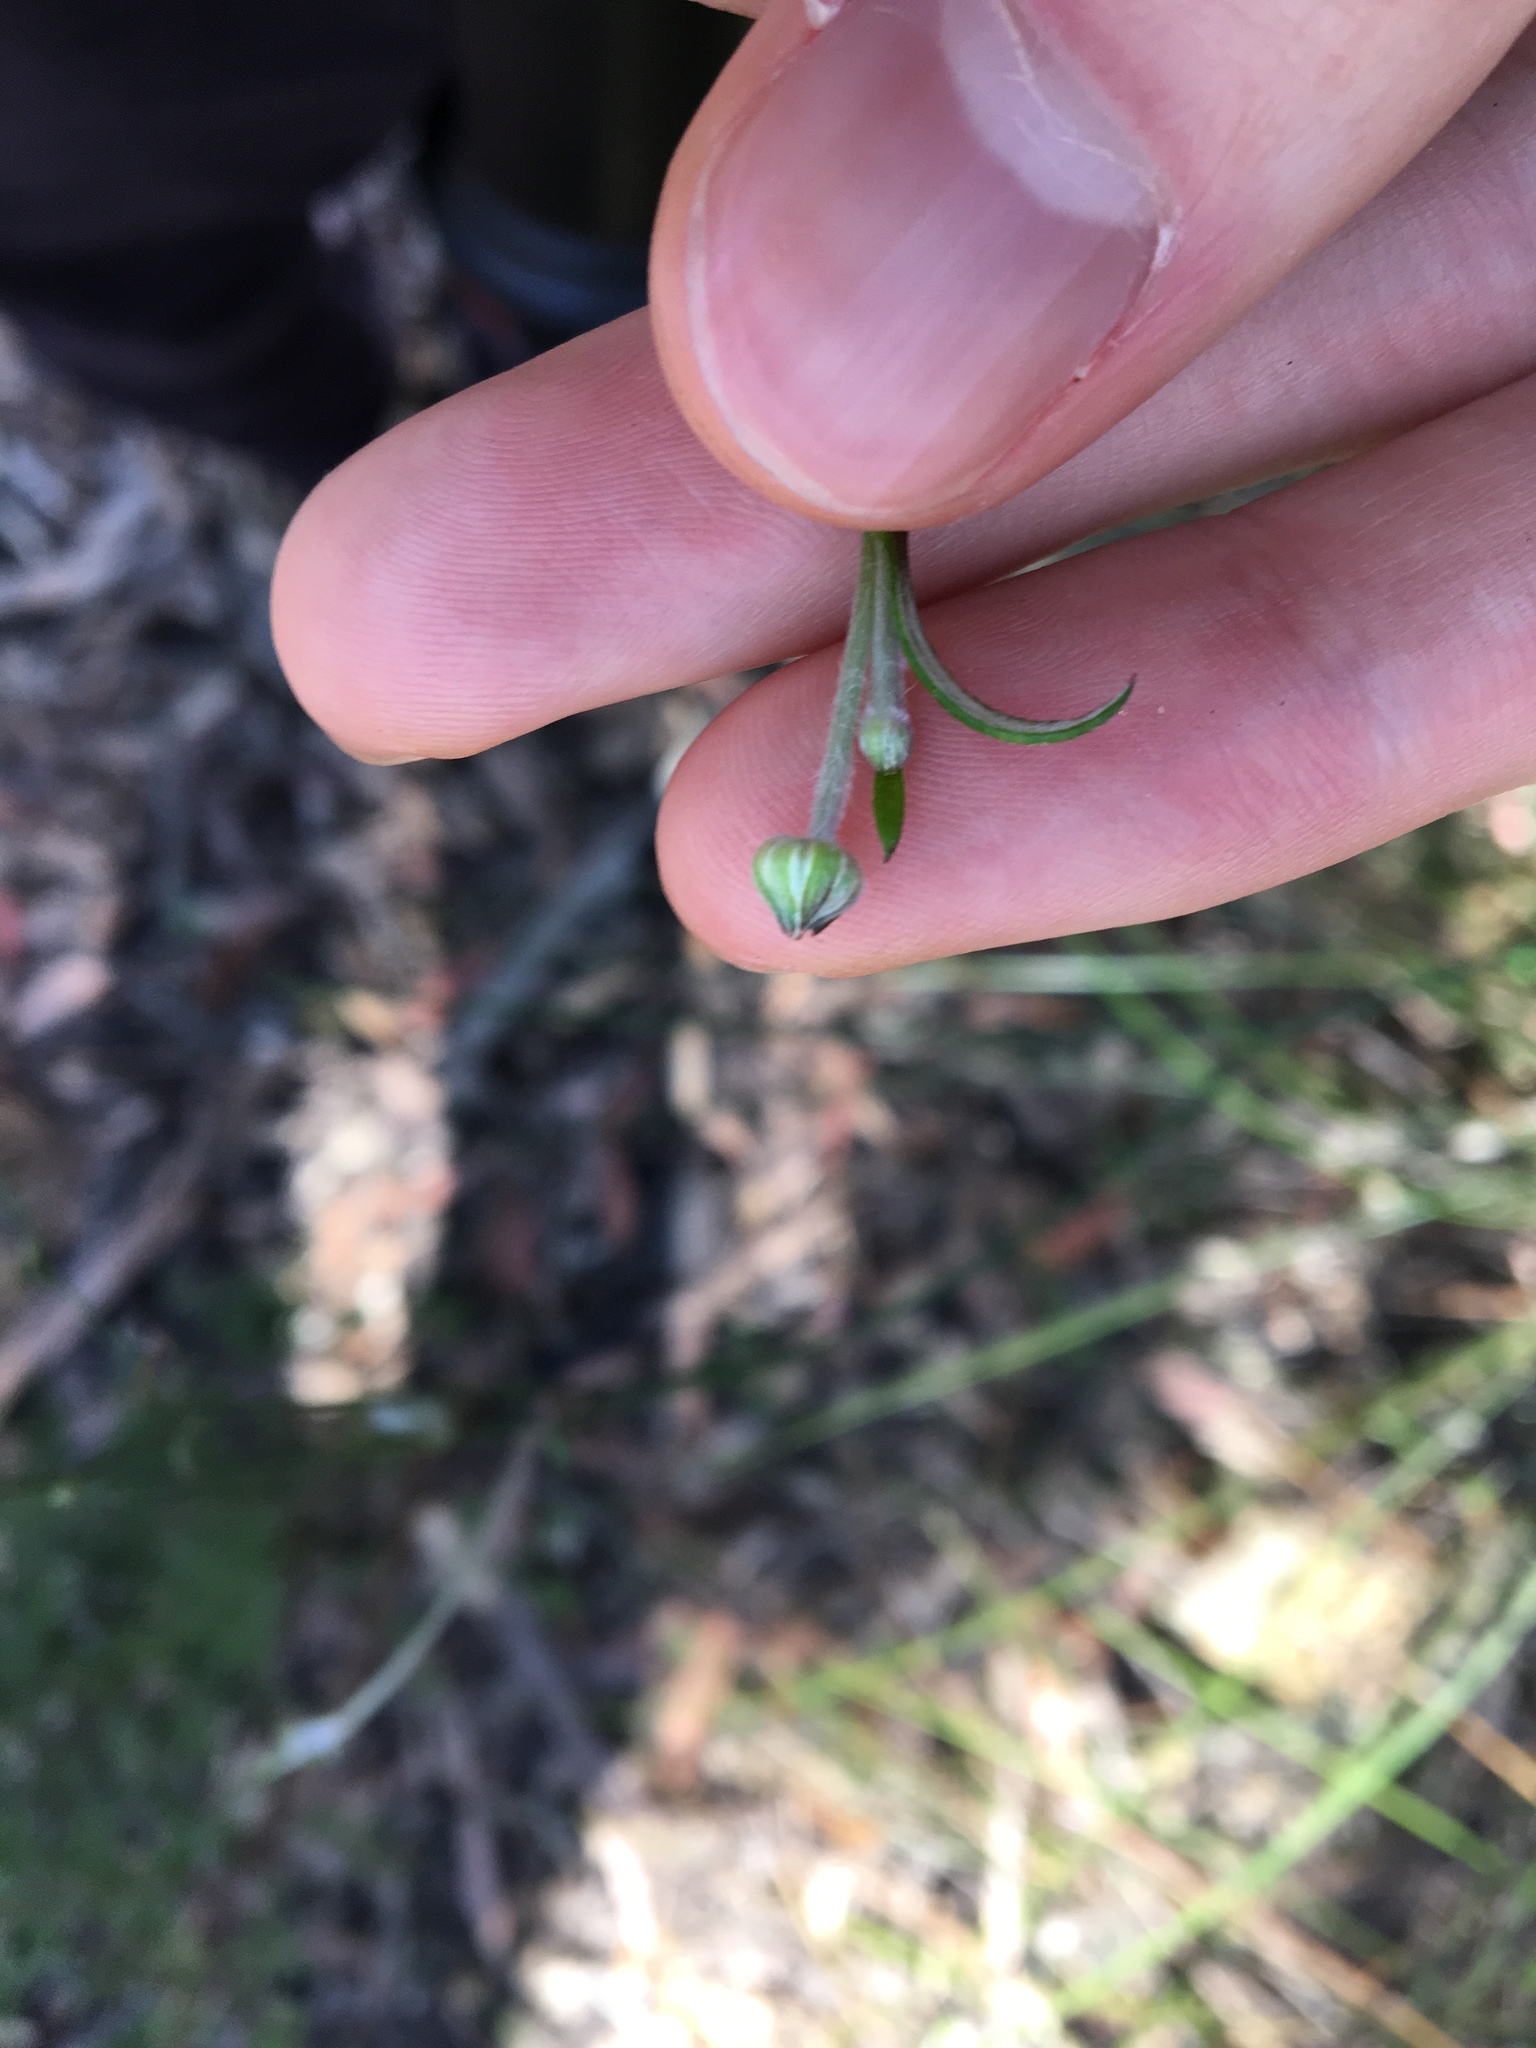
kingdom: Plantae
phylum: Tracheophyta
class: Magnoliopsida
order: Apiales
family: Apiaceae
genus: Actinotus
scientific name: Actinotus minor
